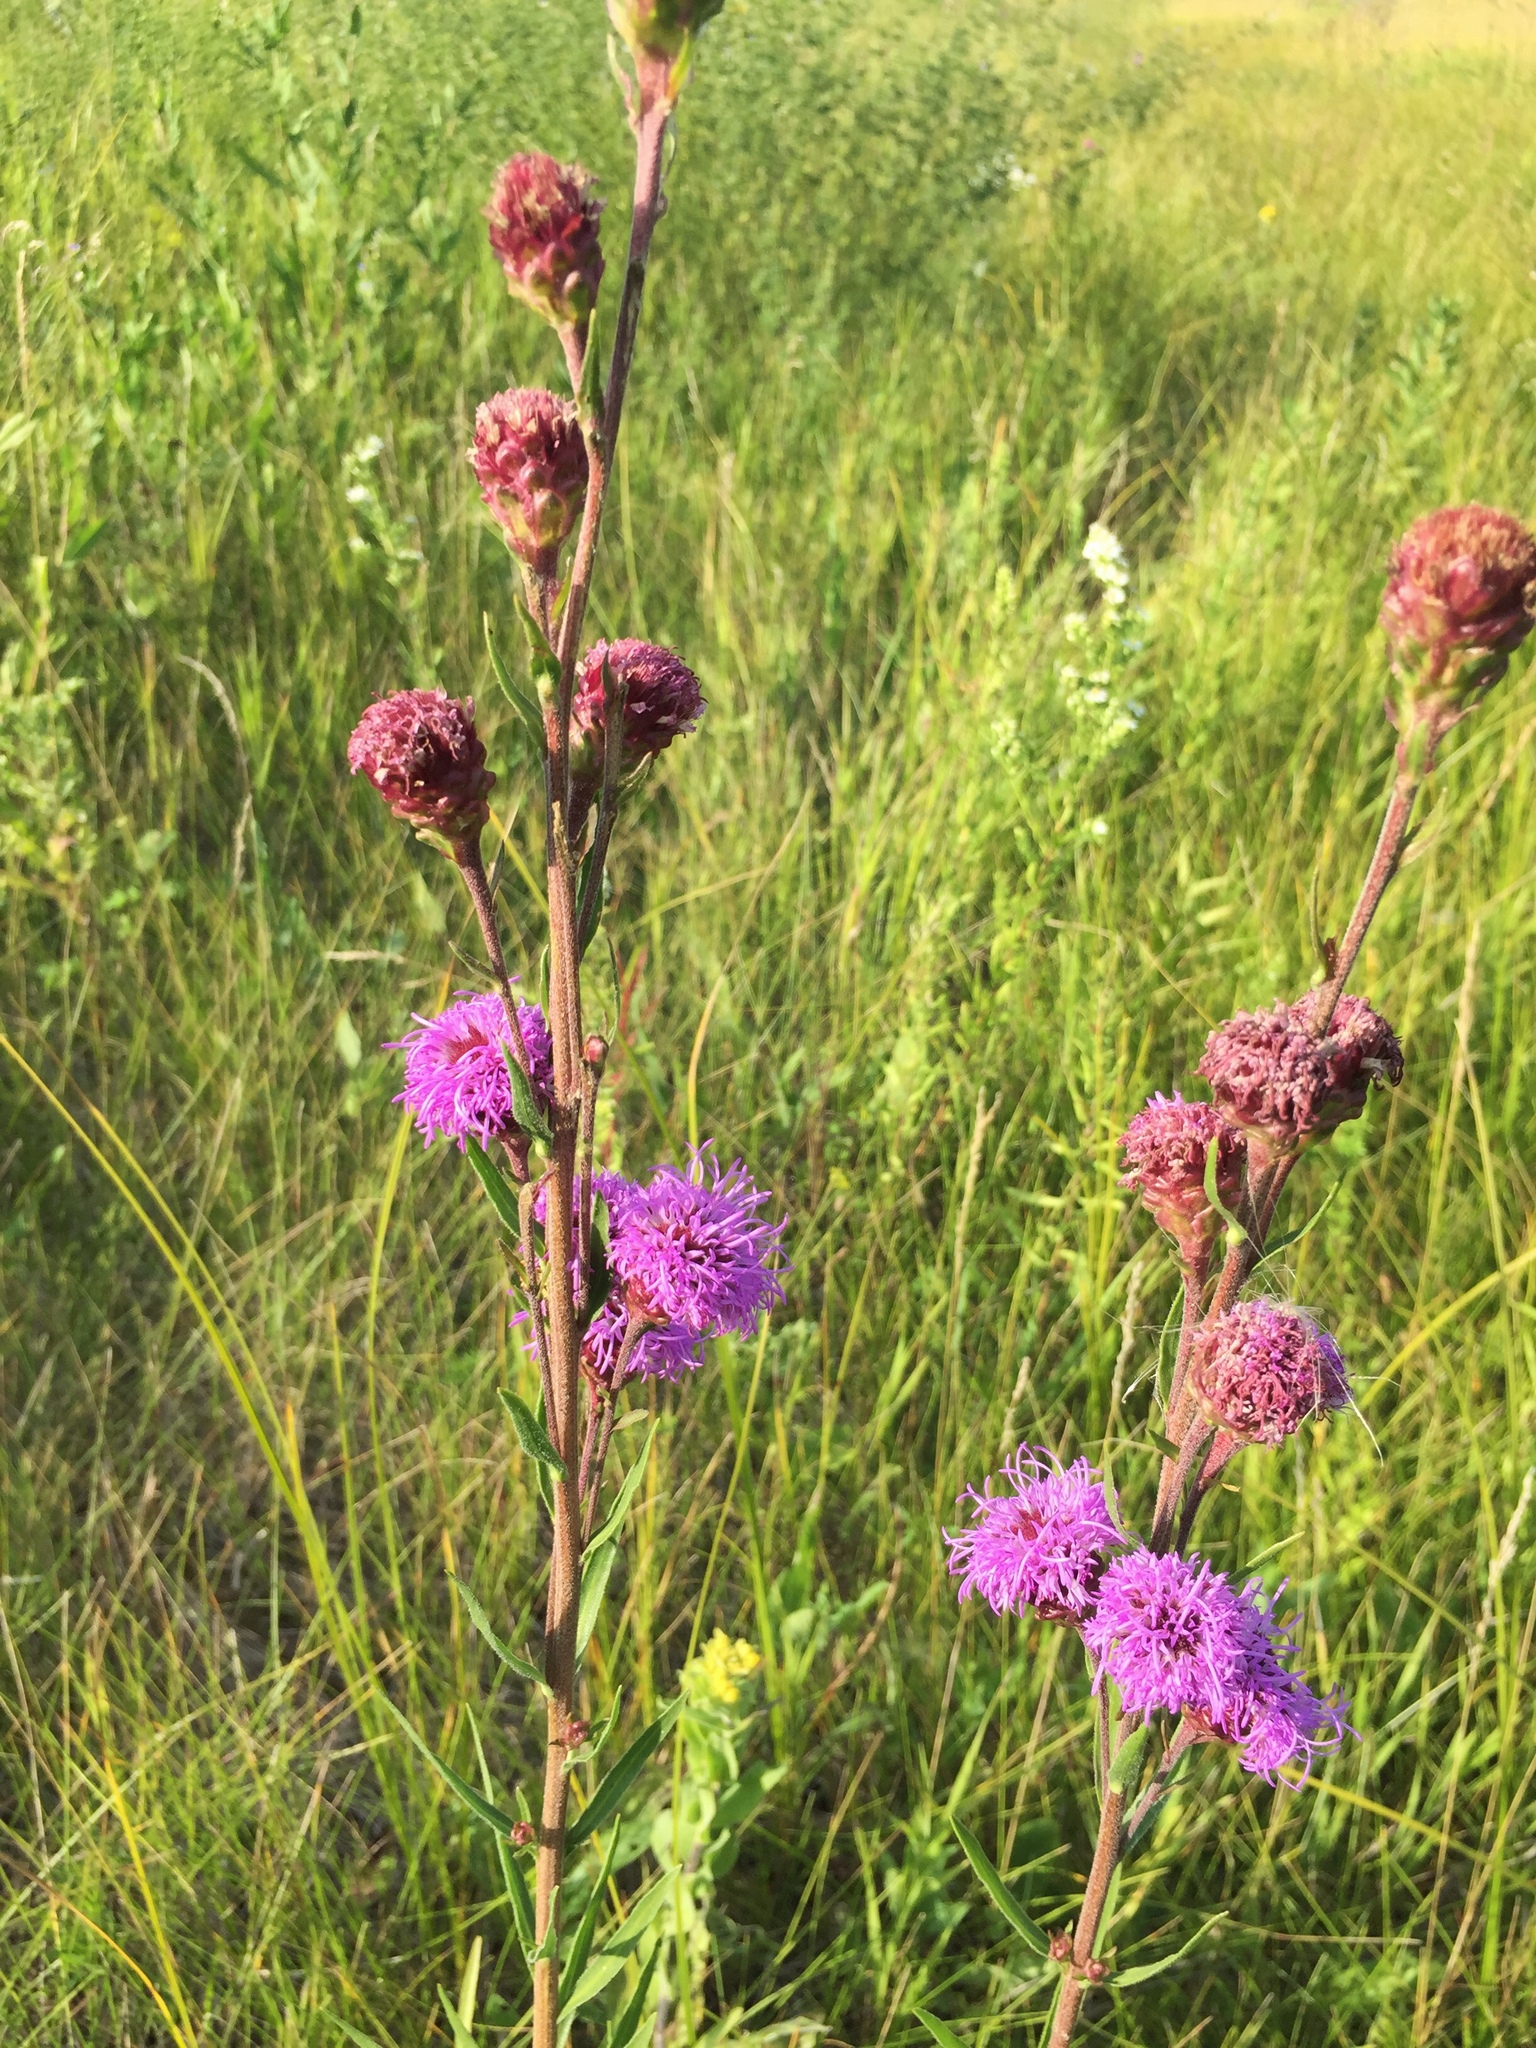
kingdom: Plantae
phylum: Tracheophyta
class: Magnoliopsida
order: Asterales
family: Asteraceae
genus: Liatris
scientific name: Liatris ligulistylis
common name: Northern plains gayfeather
